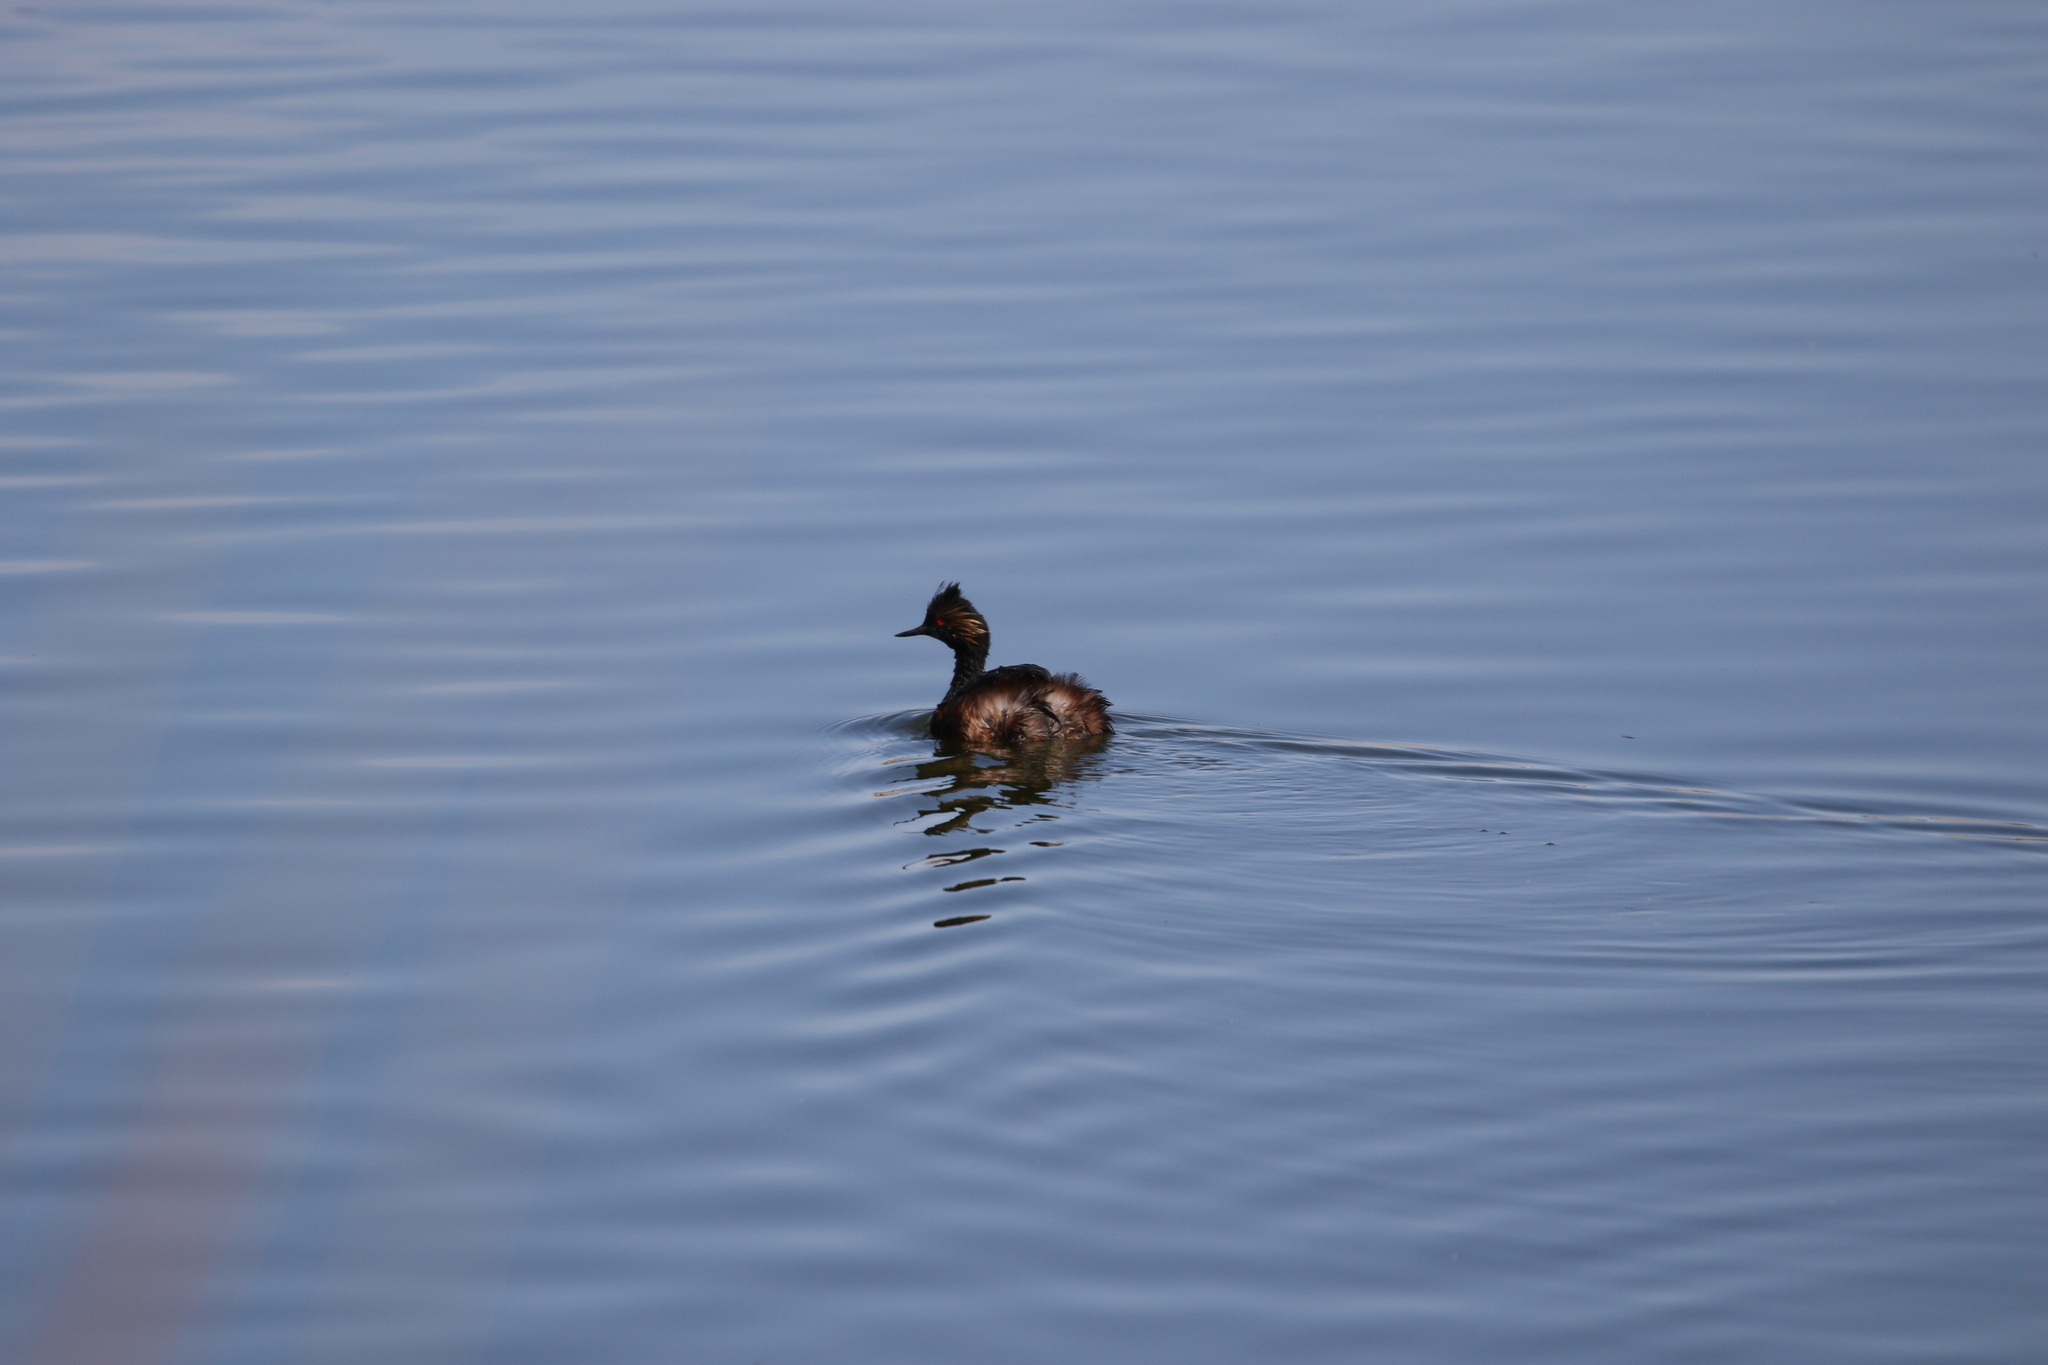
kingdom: Animalia
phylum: Chordata
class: Aves
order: Podicipediformes
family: Podicipedidae
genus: Podiceps
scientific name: Podiceps nigricollis
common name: Black-necked grebe
